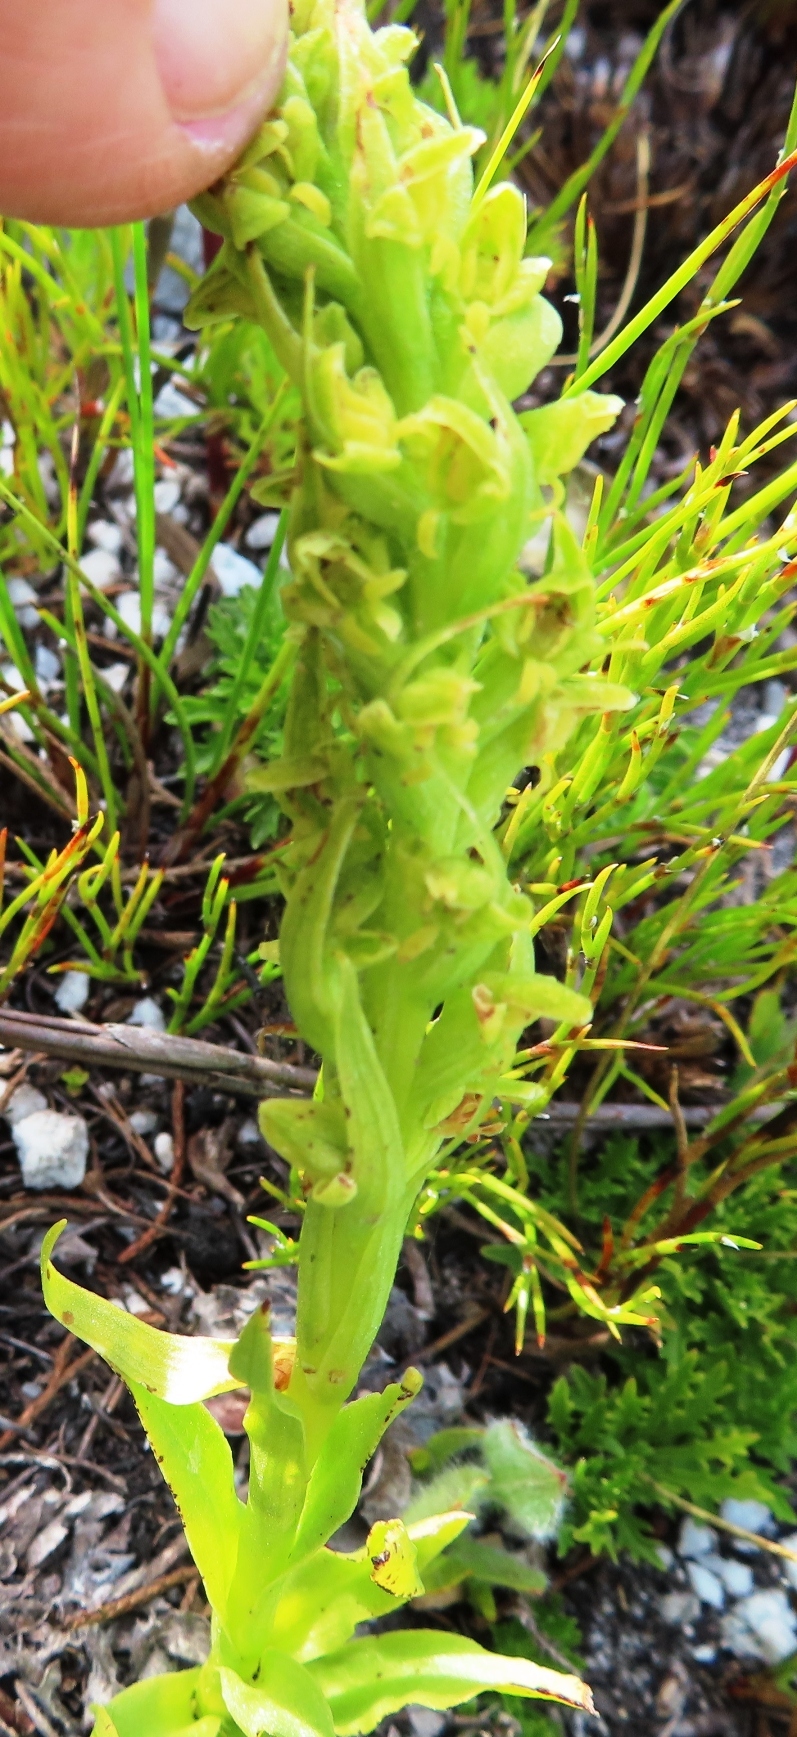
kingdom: Plantae
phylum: Tracheophyta
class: Liliopsida
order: Asparagales
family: Orchidaceae
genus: Disa
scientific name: Disa cylindrica
